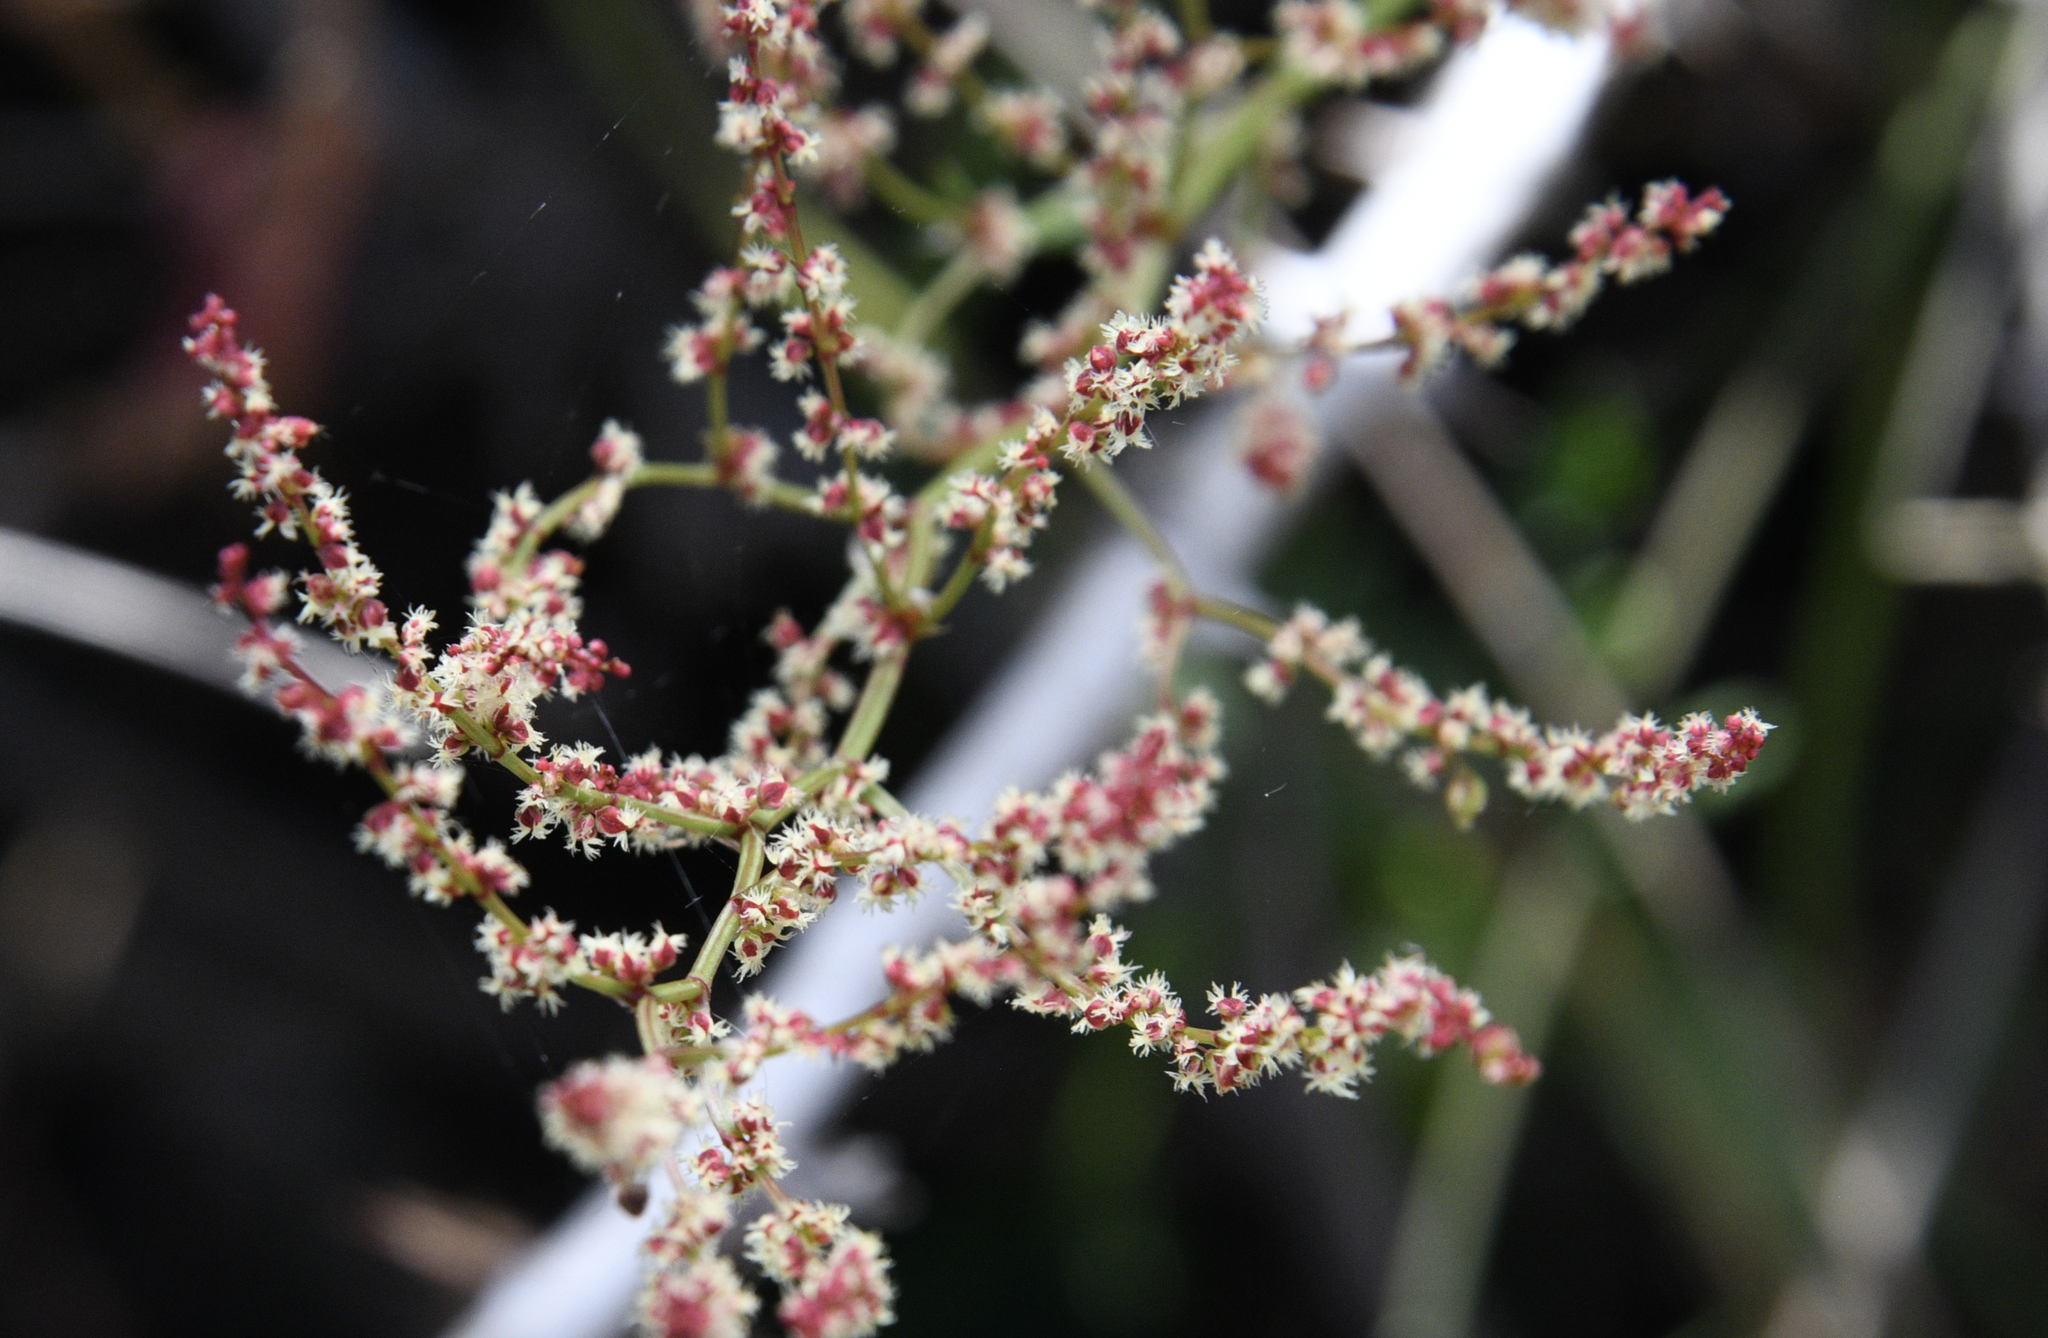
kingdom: Plantae
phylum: Tracheophyta
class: Magnoliopsida
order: Caryophyllales
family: Polygonaceae
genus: Rumex
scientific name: Rumex acetosella
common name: Common sheep sorrel
